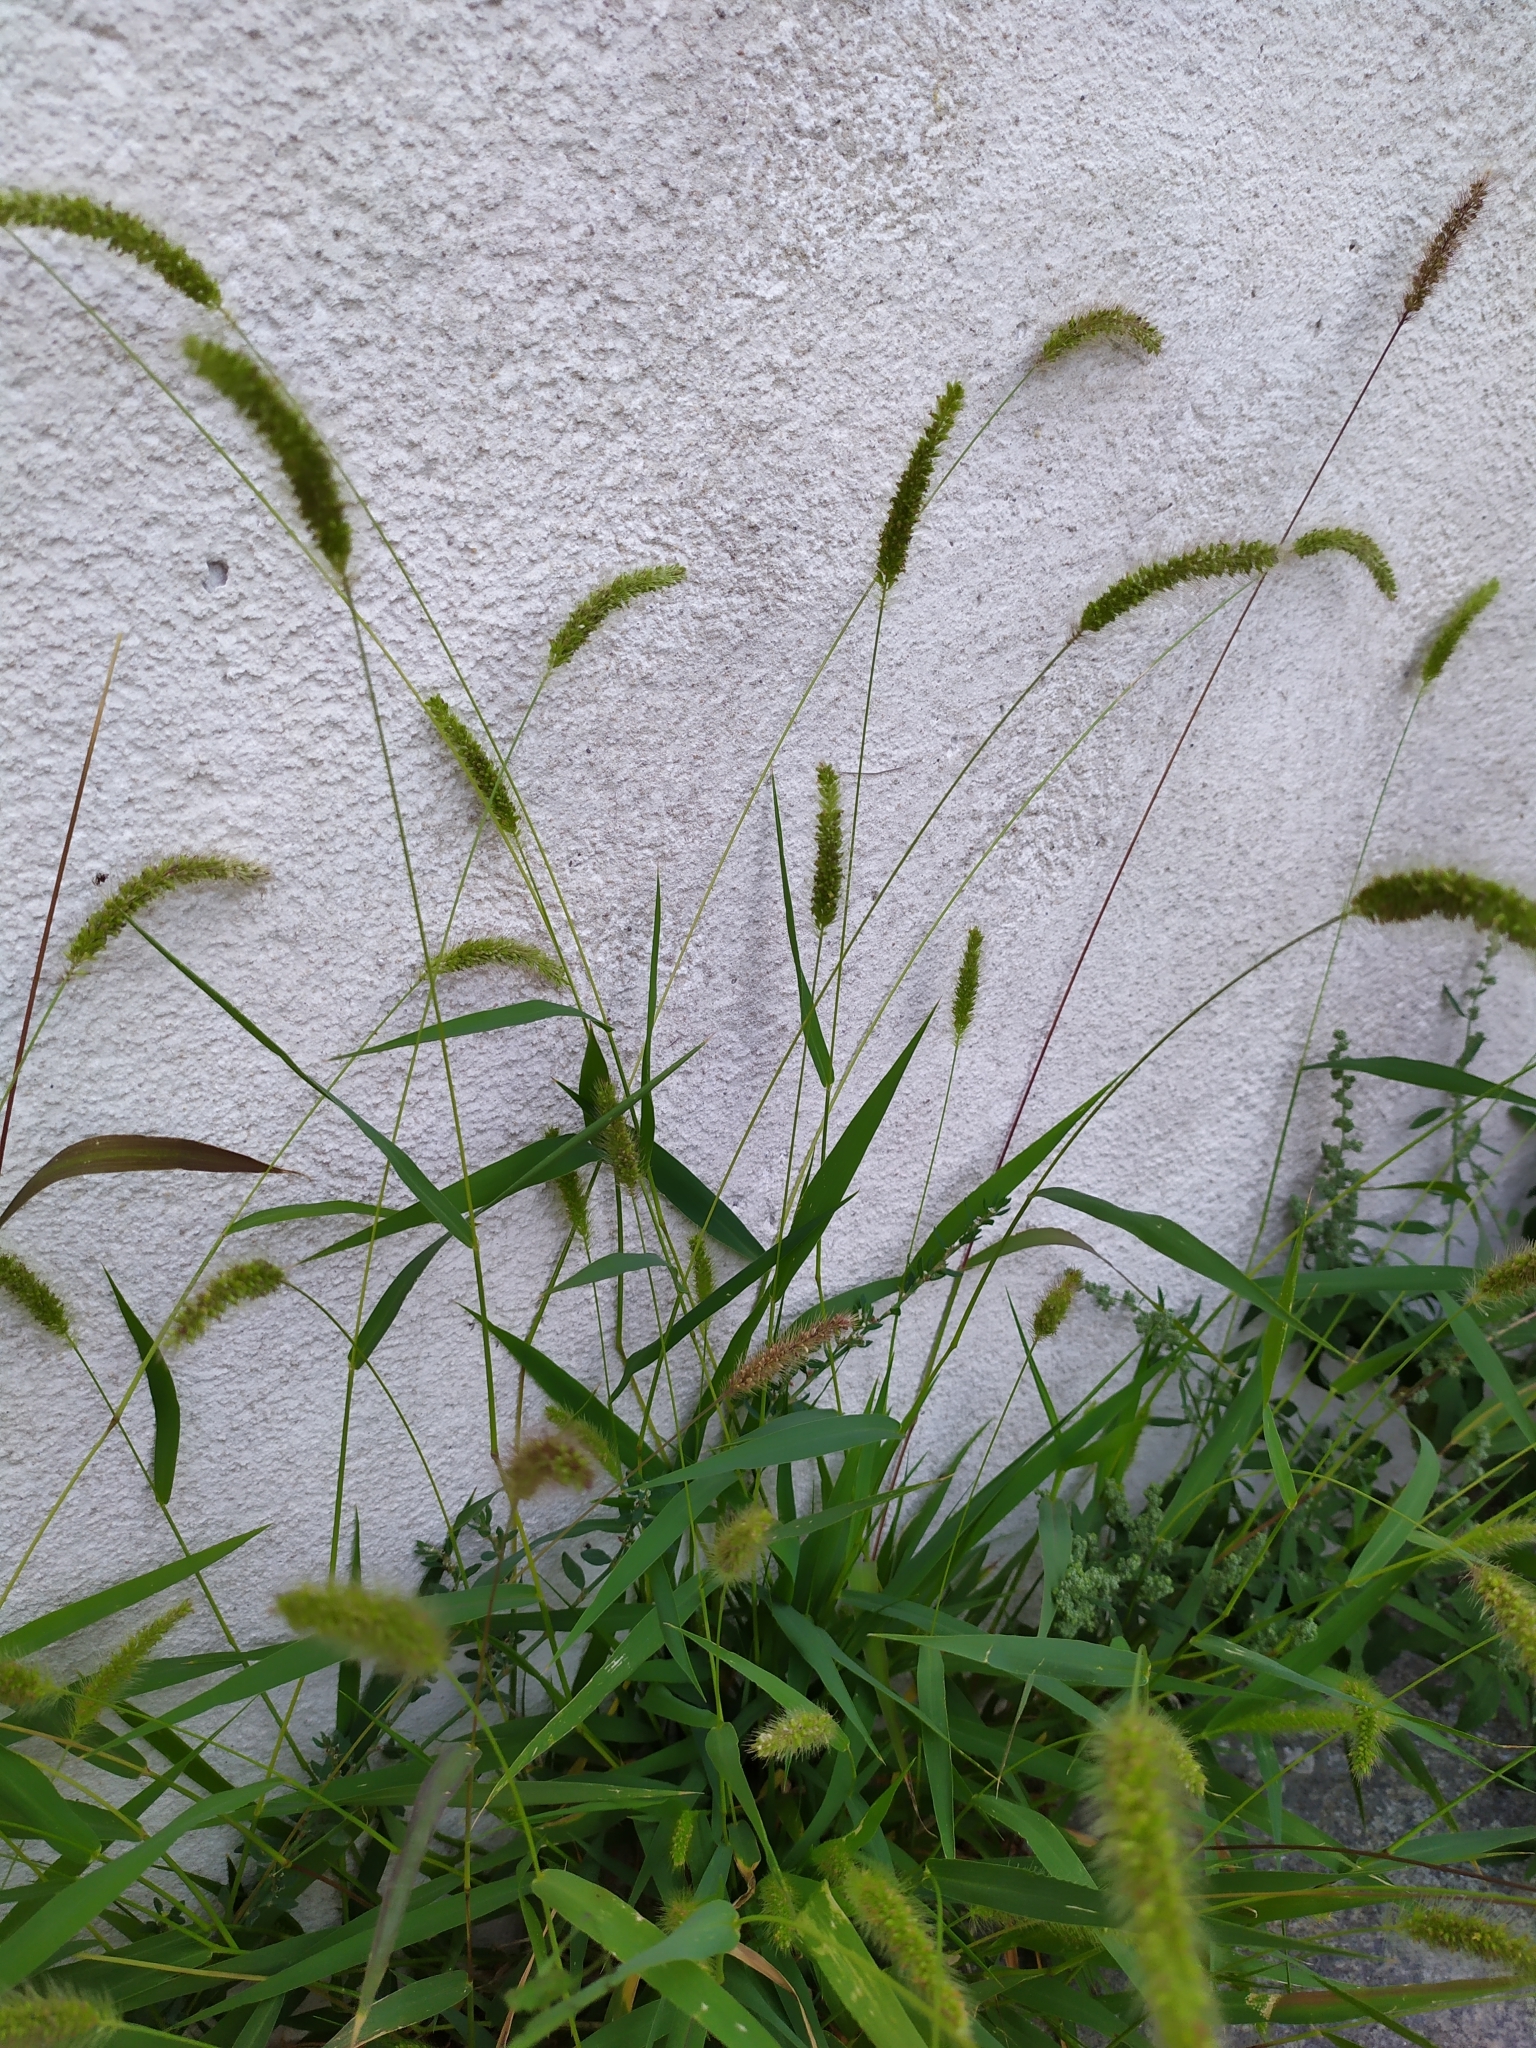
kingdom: Plantae
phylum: Tracheophyta
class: Liliopsida
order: Poales
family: Poaceae
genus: Setaria
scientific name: Setaria viridis
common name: Green bristlegrass
